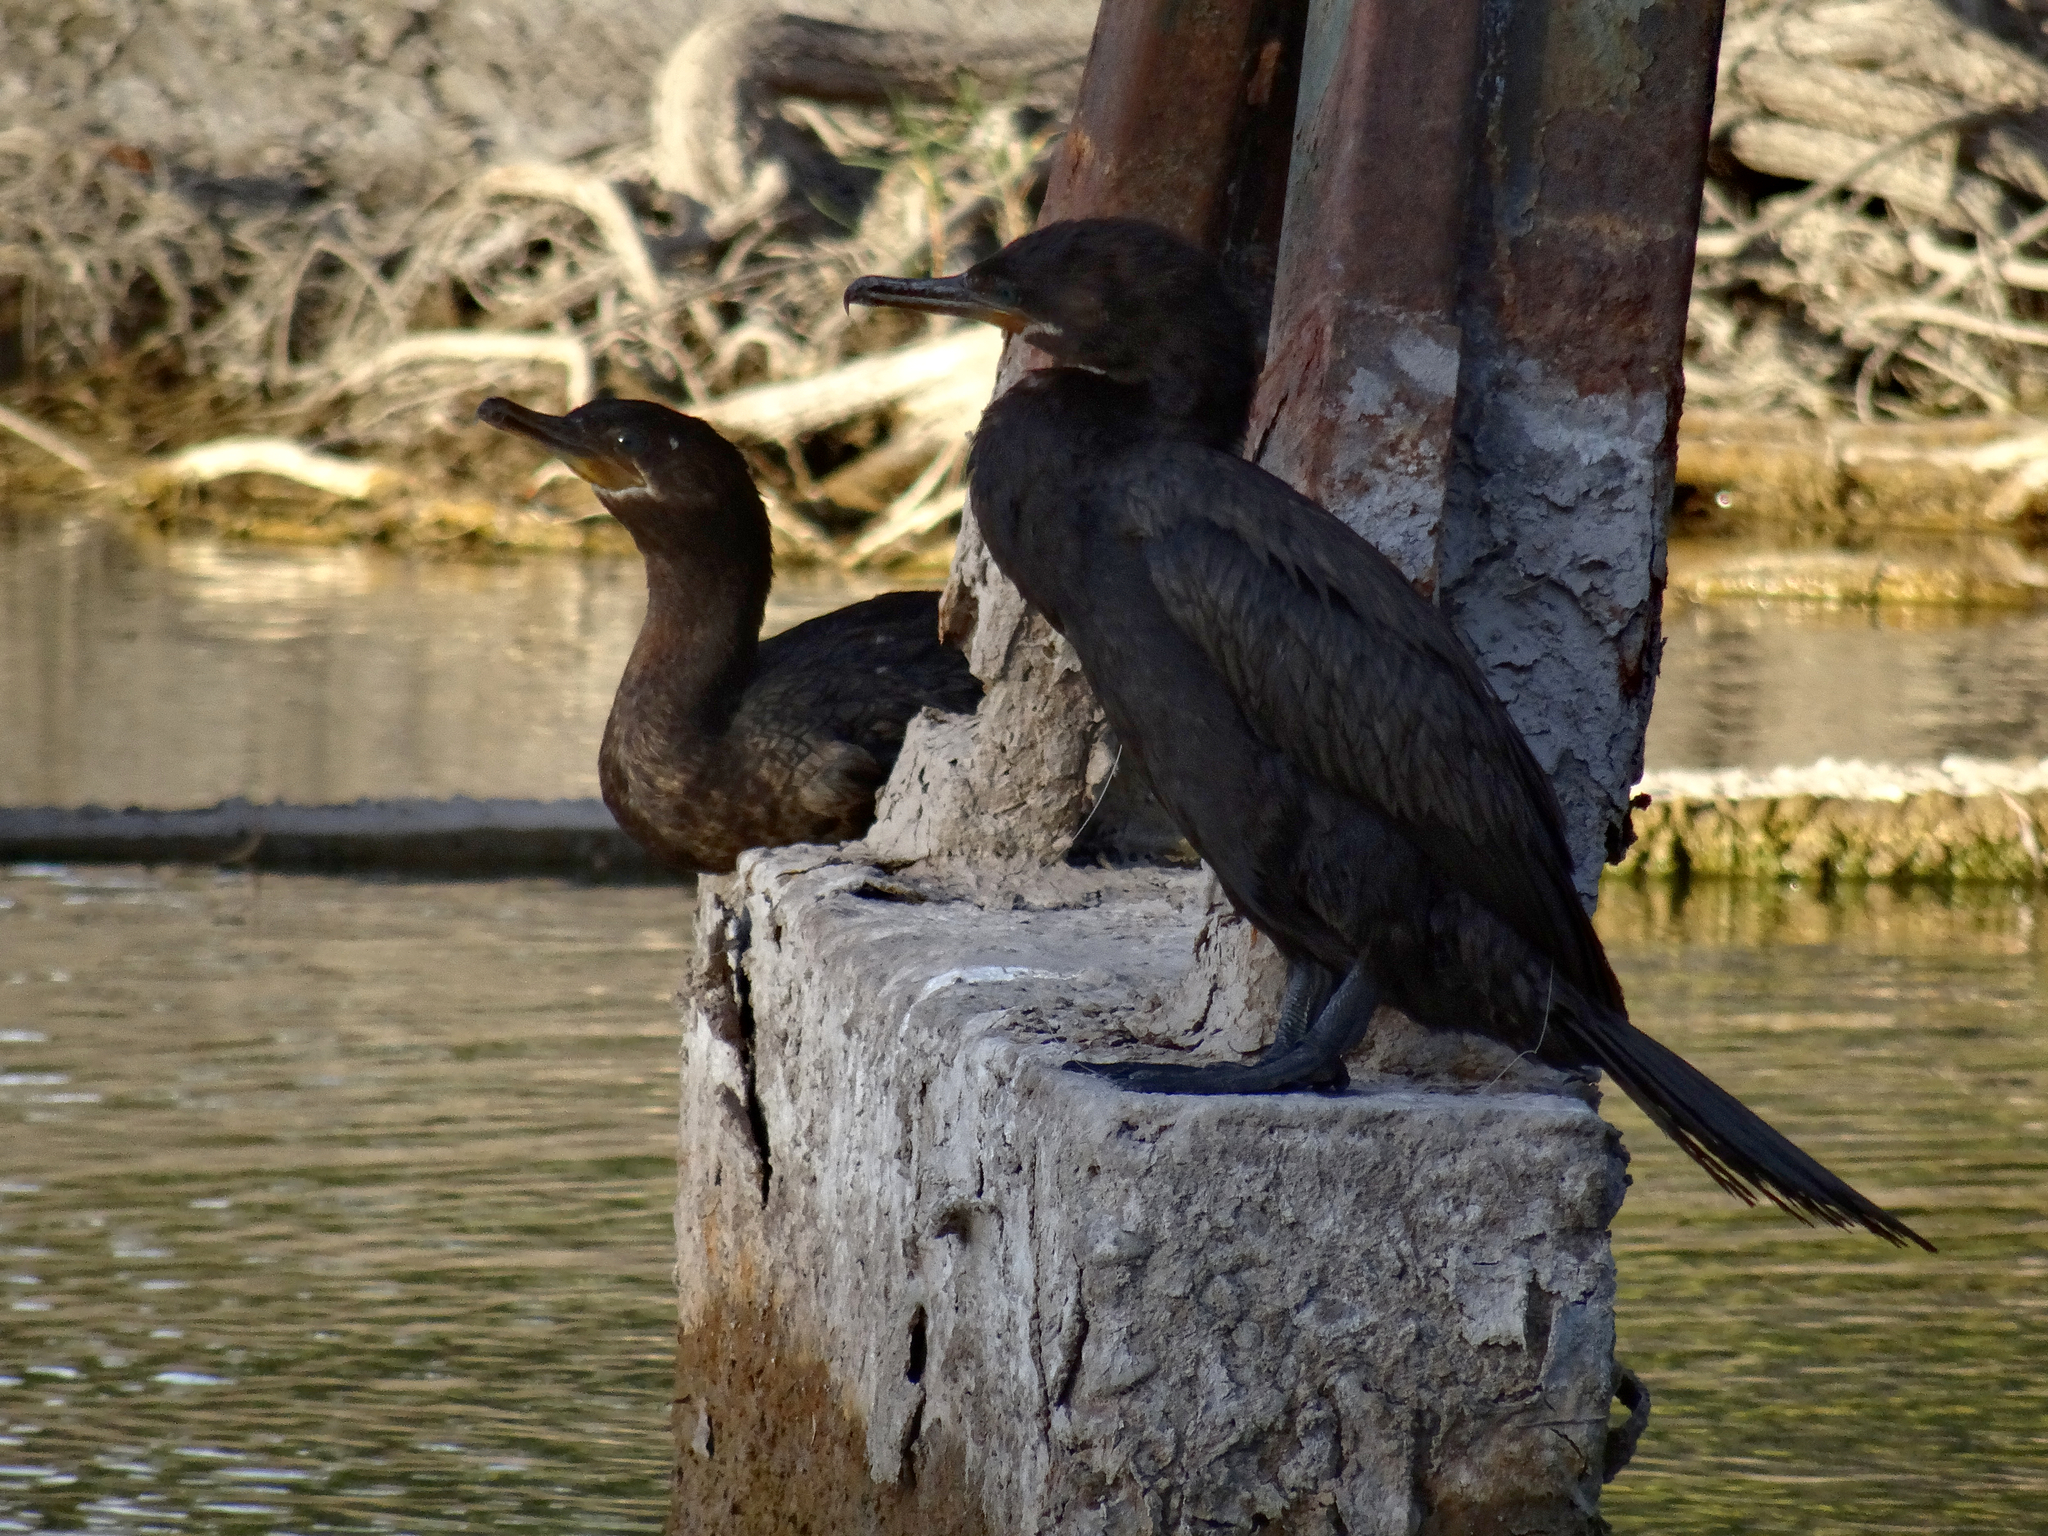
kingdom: Animalia
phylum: Chordata
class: Aves
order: Suliformes
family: Phalacrocoracidae
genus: Phalacrocorax
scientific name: Phalacrocorax brasilianus
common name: Neotropic cormorant
